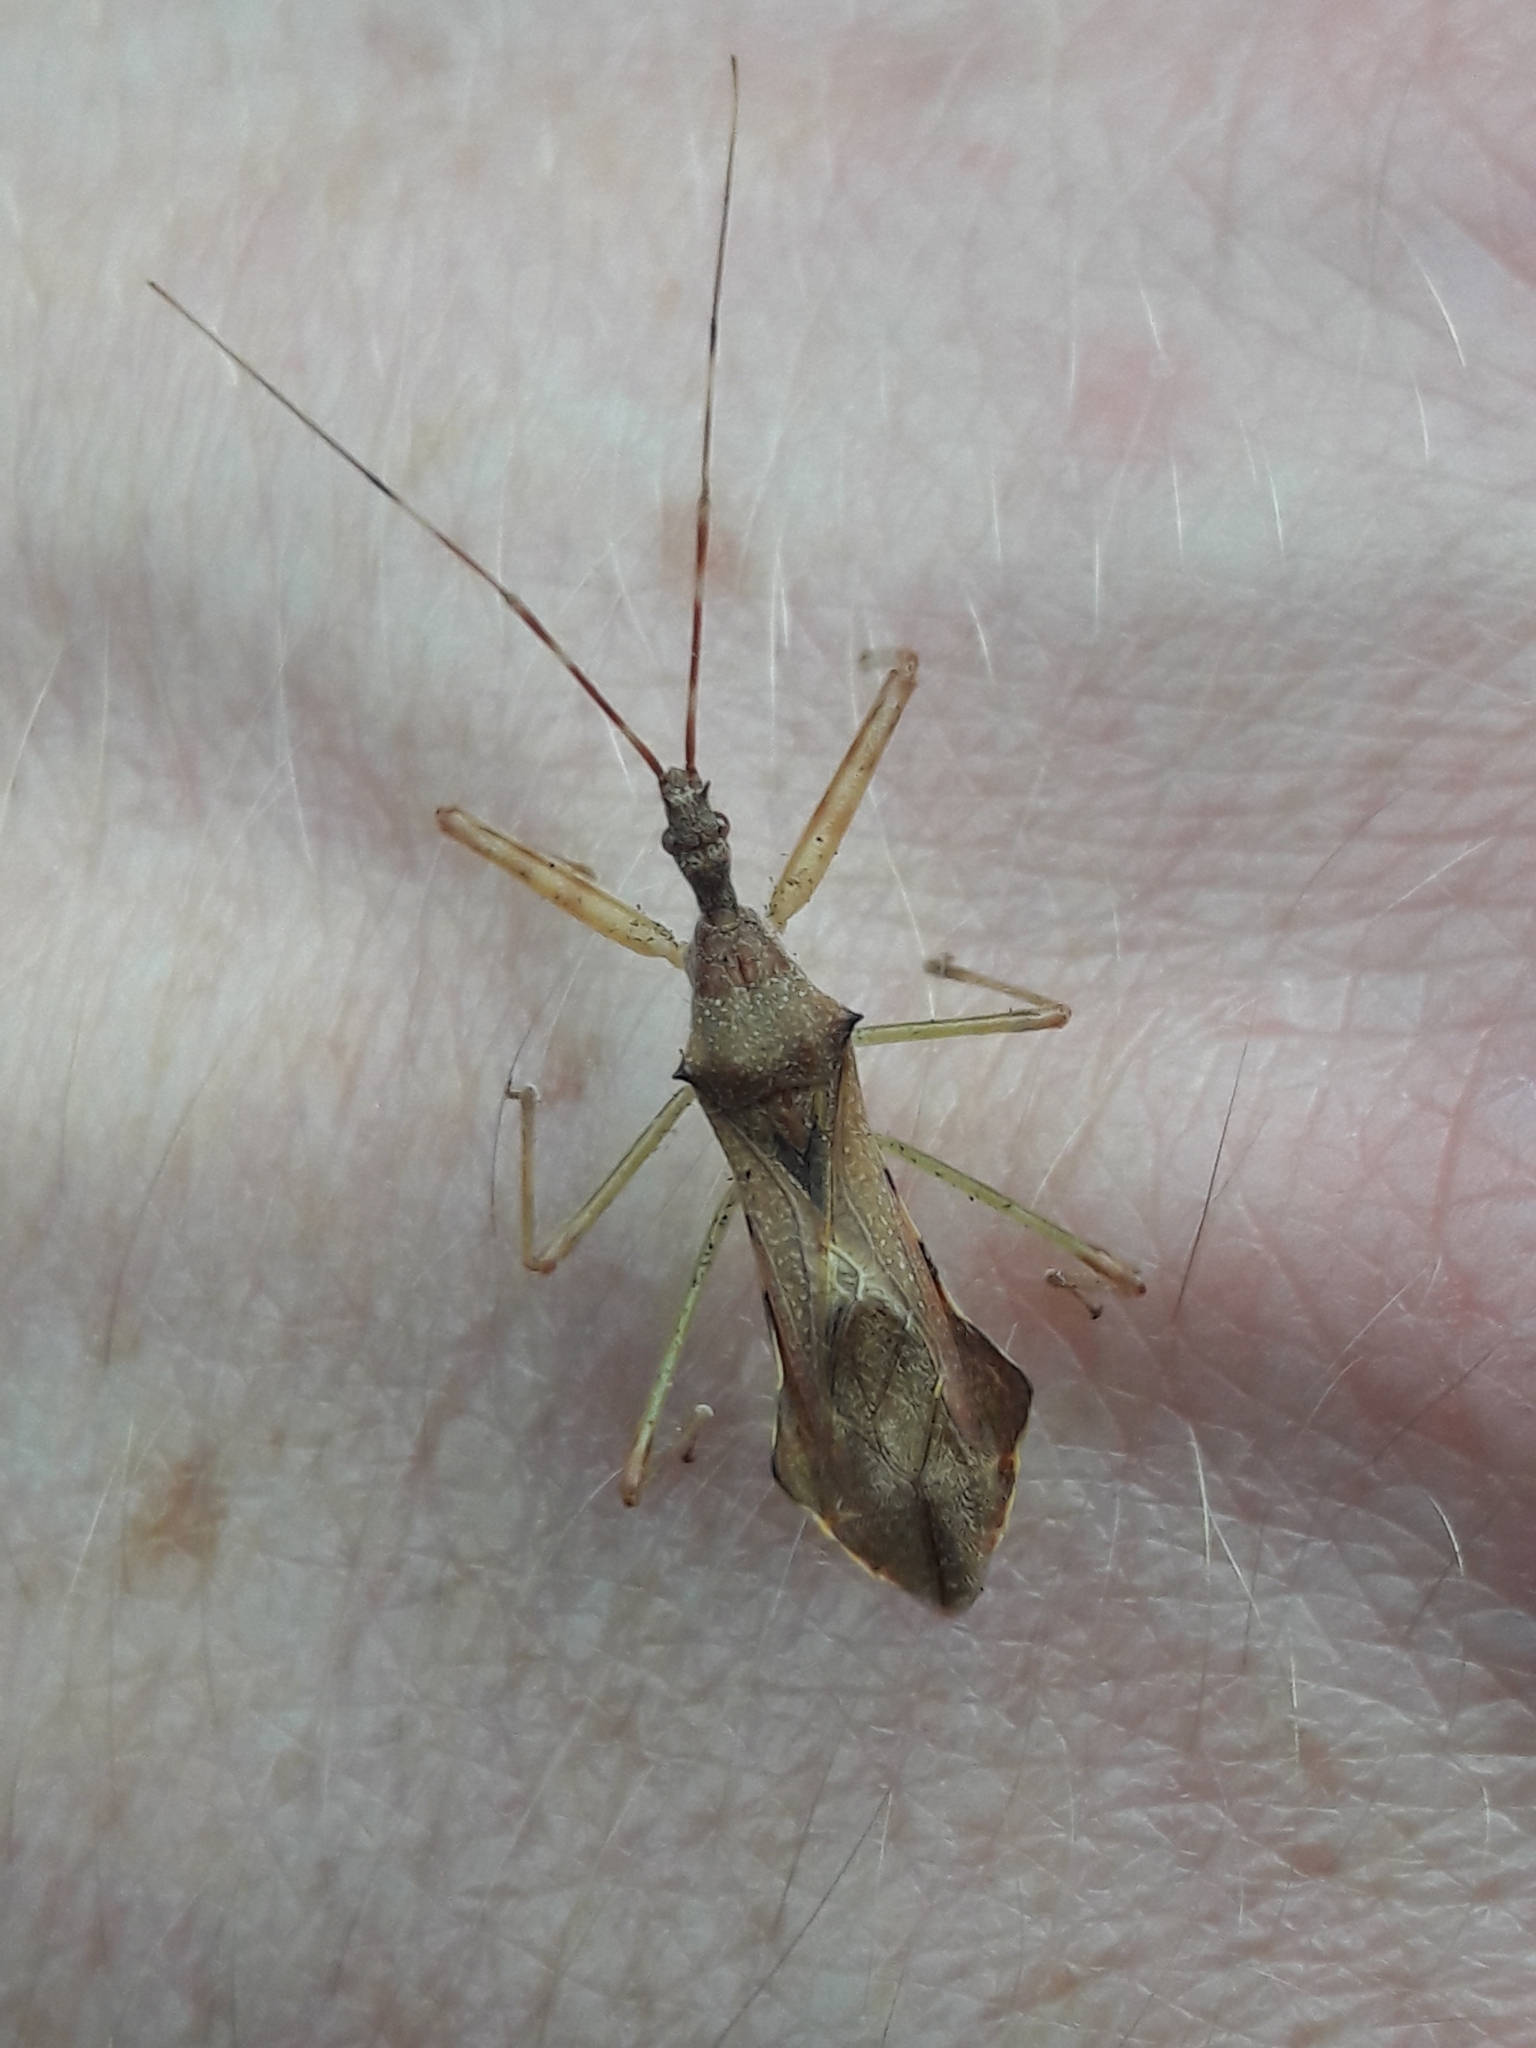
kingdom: Animalia
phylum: Arthropoda
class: Insecta
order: Hemiptera
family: Reduviidae
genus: Nagusta
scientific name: Nagusta goedelii
